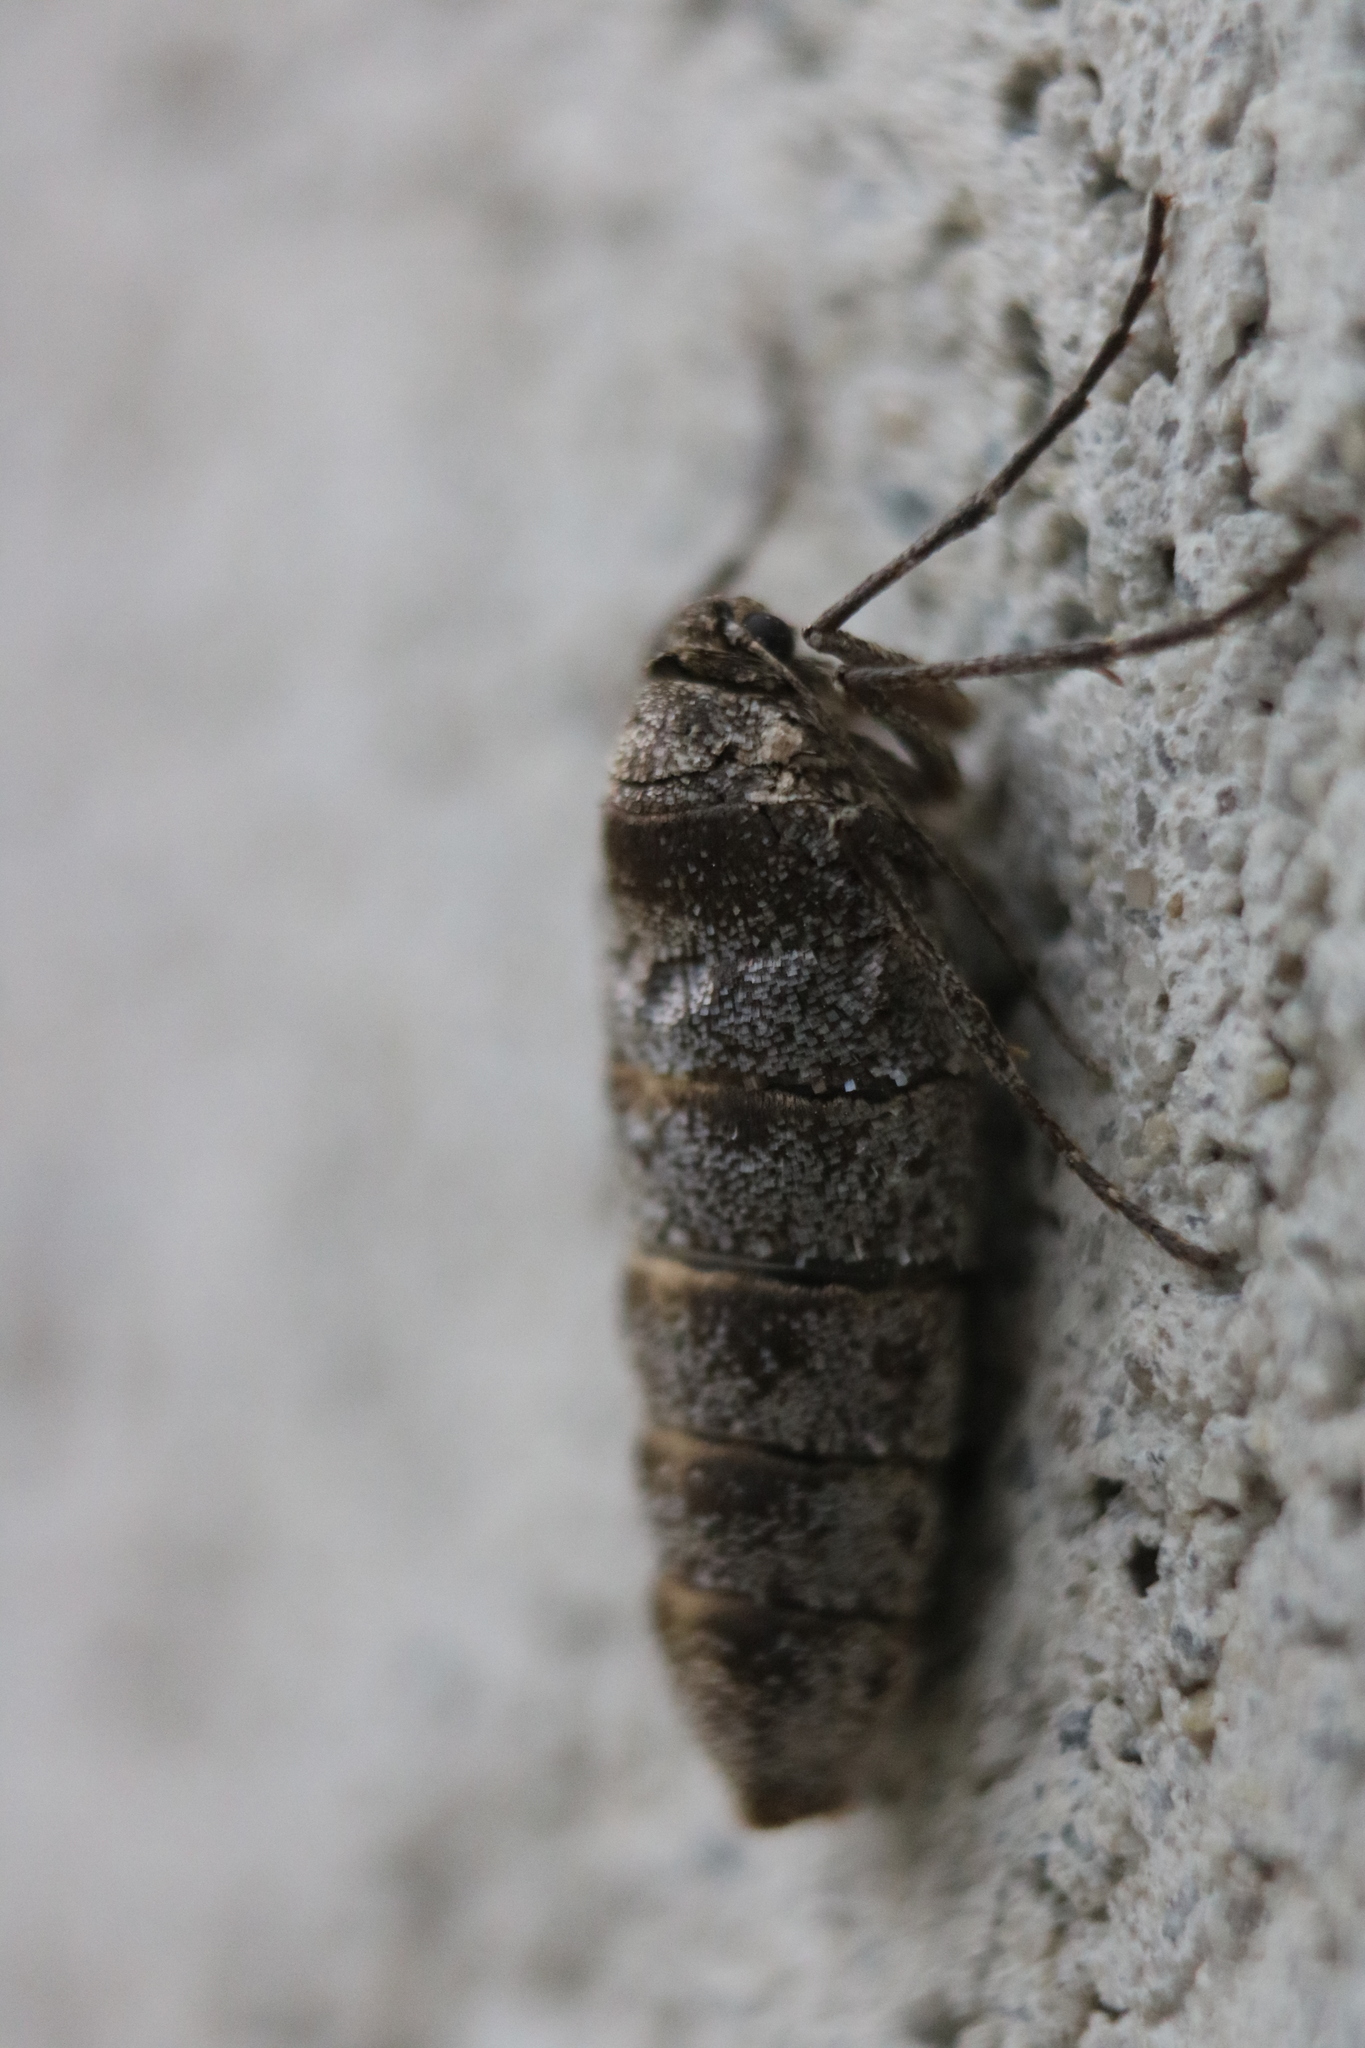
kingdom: Animalia
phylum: Arthropoda
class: Insecta
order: Lepidoptera
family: Geometridae
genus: Alsophila
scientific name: Alsophila pometaria
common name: Fall cankerworm
